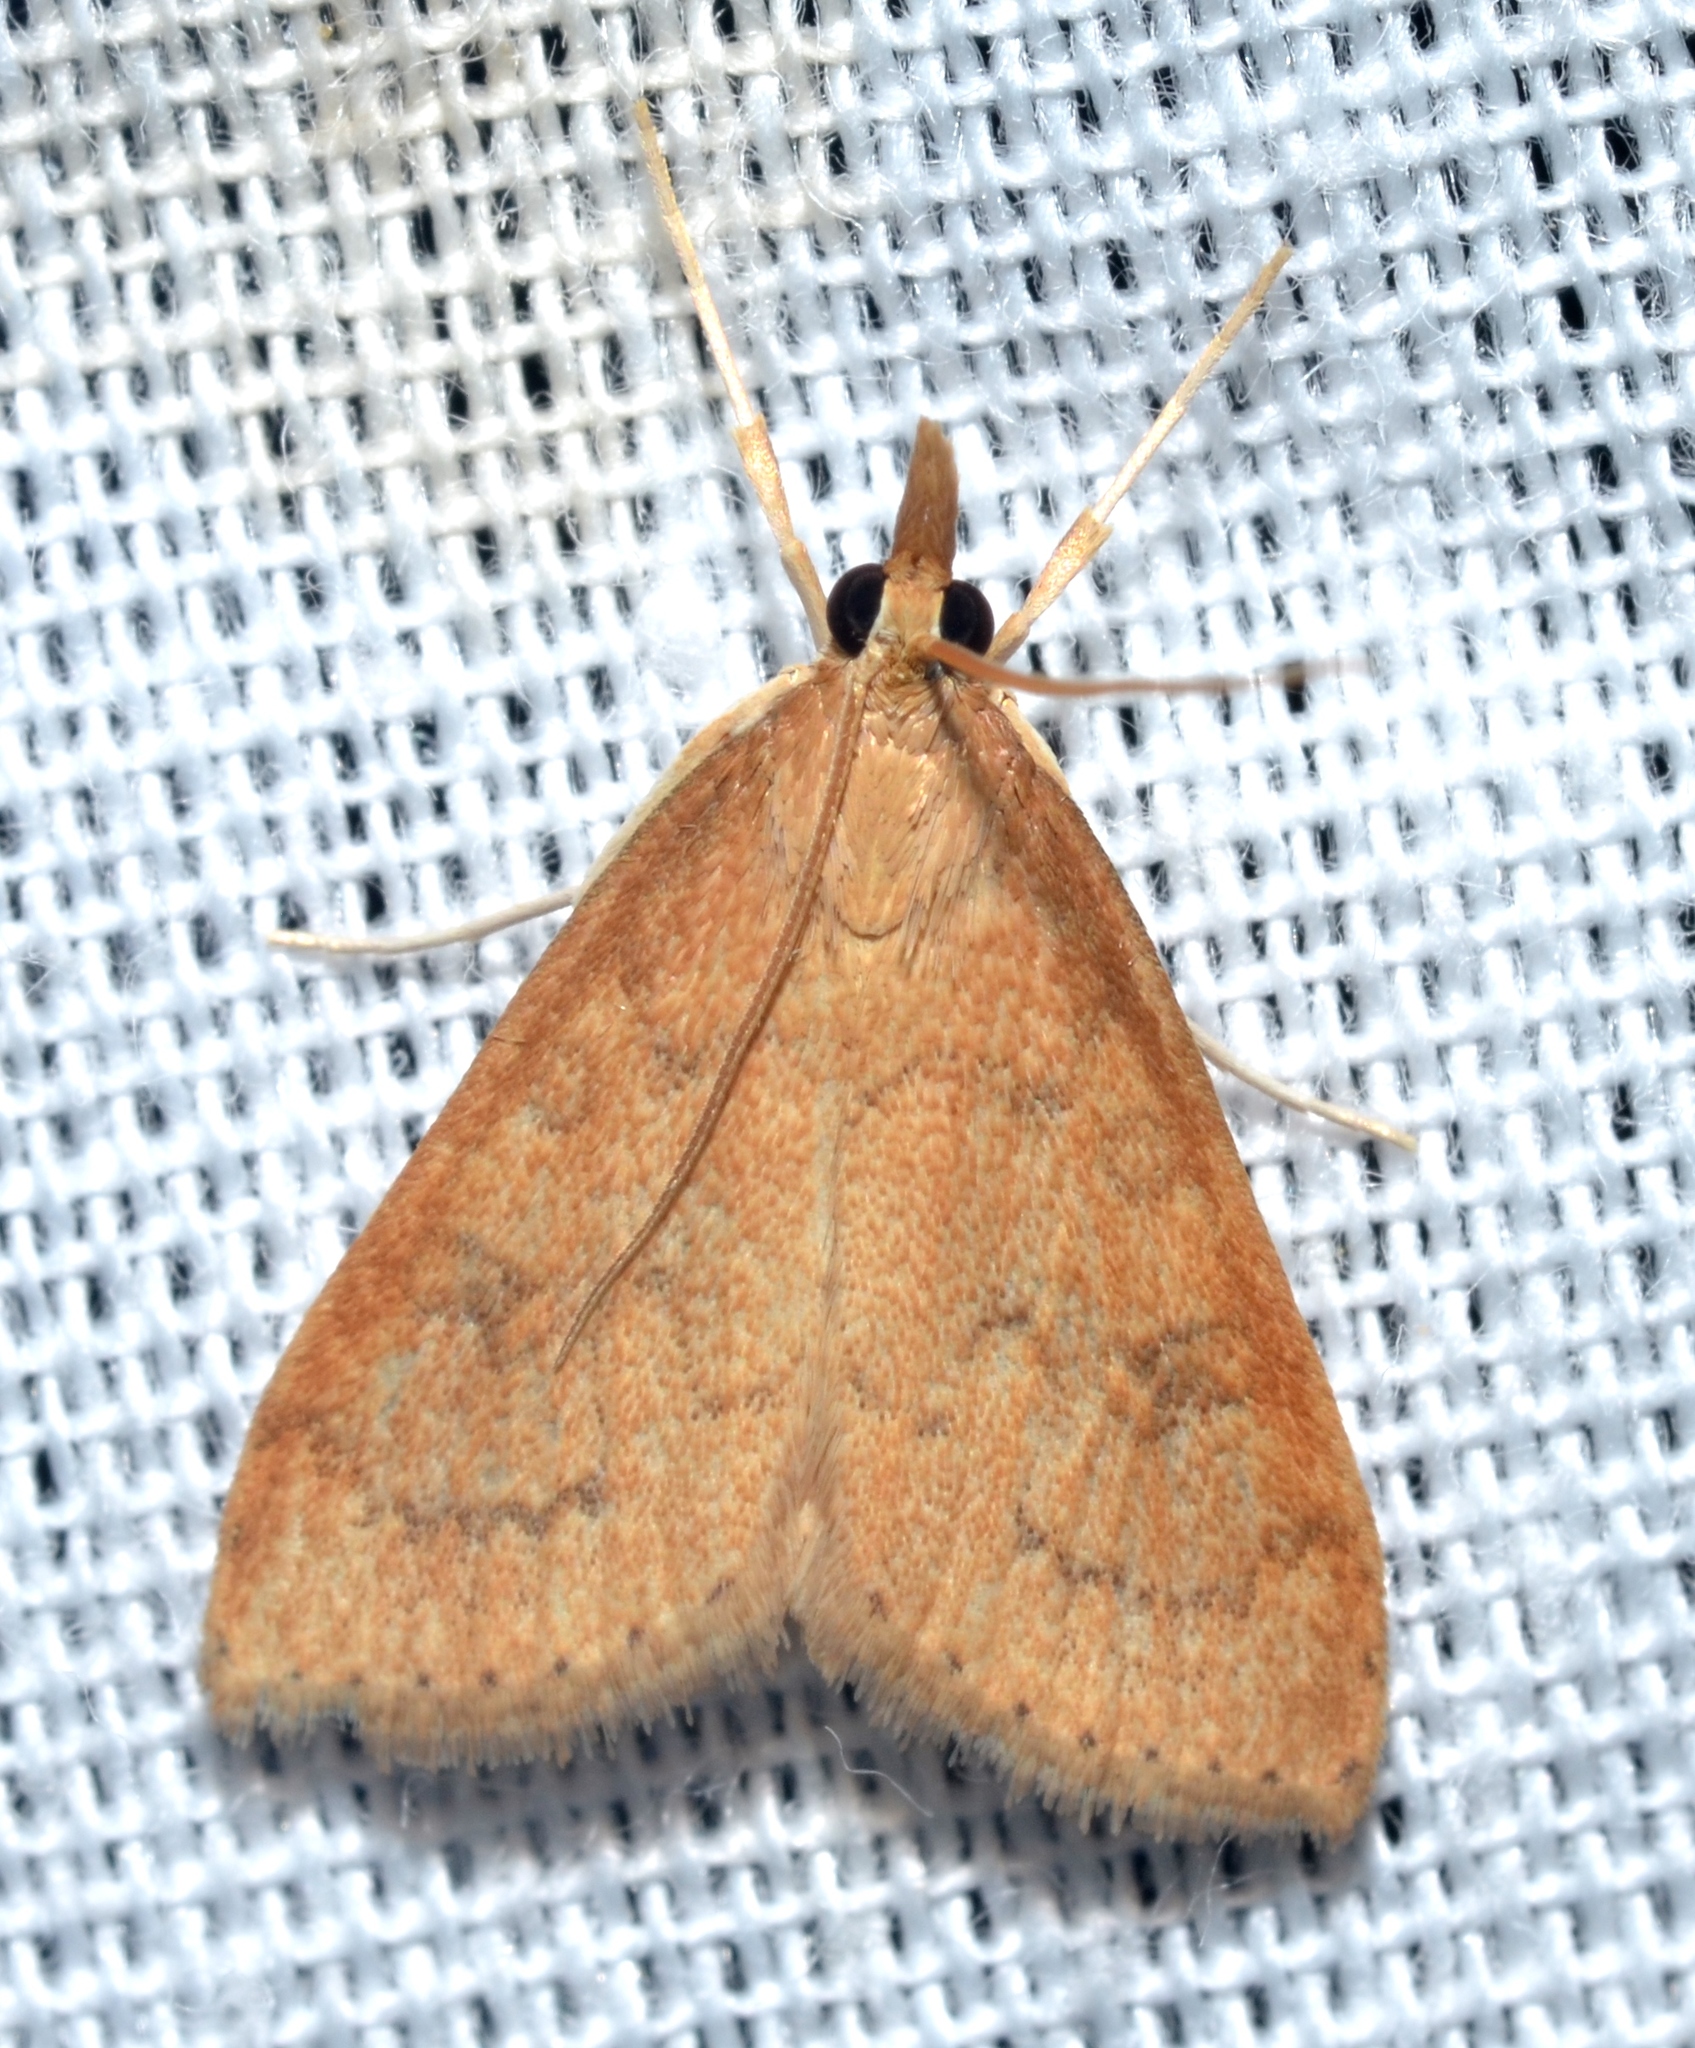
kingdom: Animalia
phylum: Arthropoda
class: Insecta
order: Lepidoptera
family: Crambidae
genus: Udea
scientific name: Udea rubigalis
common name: Celery leaftier moth
